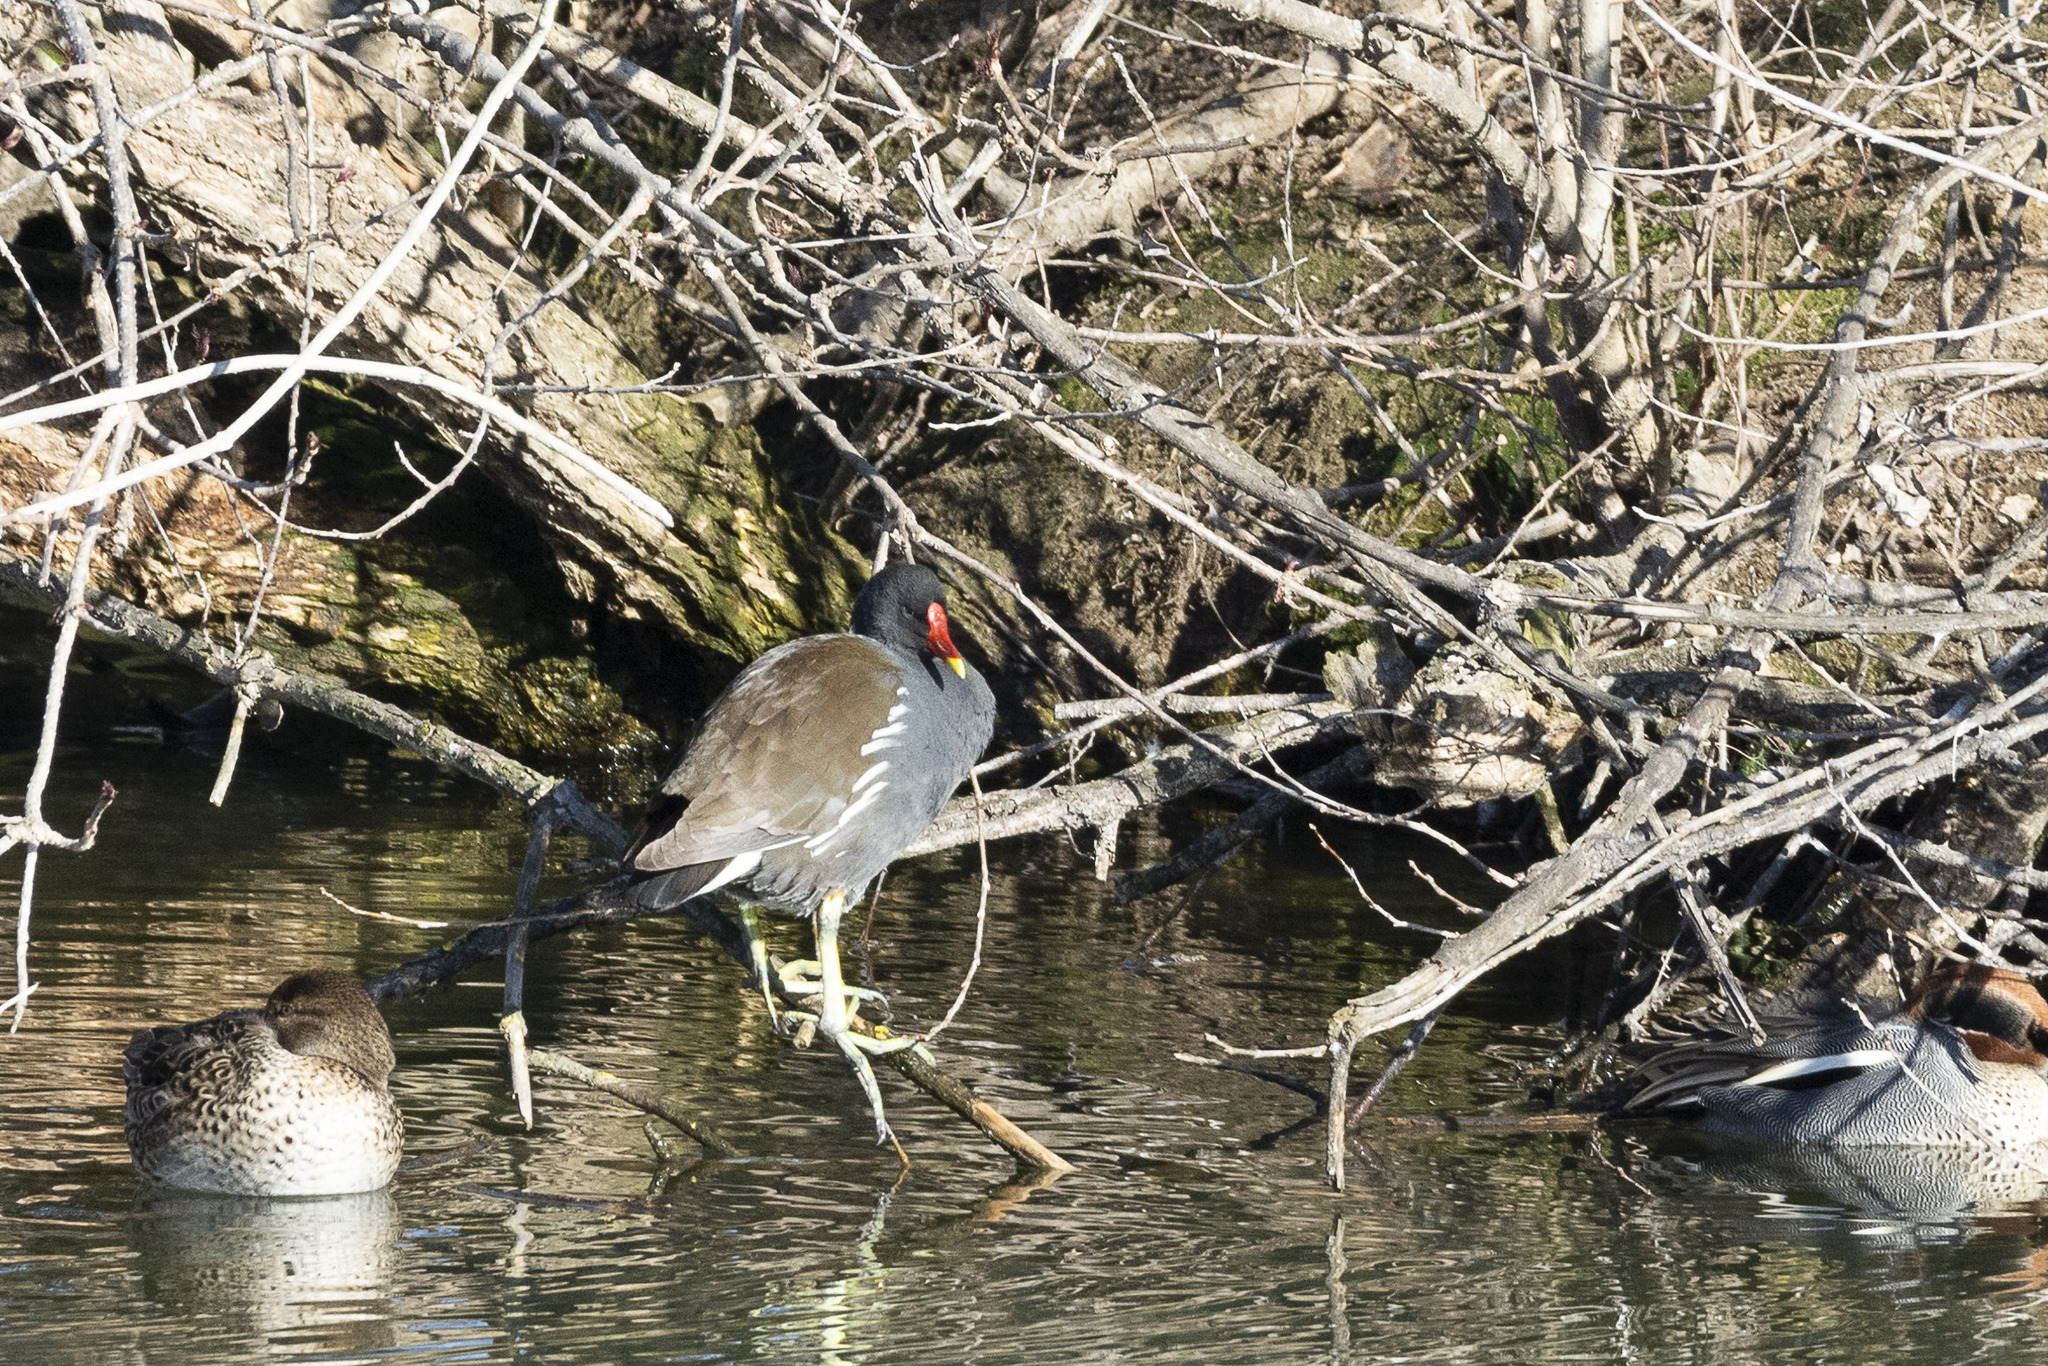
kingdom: Animalia
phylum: Chordata
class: Aves
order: Gruiformes
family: Rallidae
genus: Gallinula
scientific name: Gallinula chloropus
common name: Common moorhen
